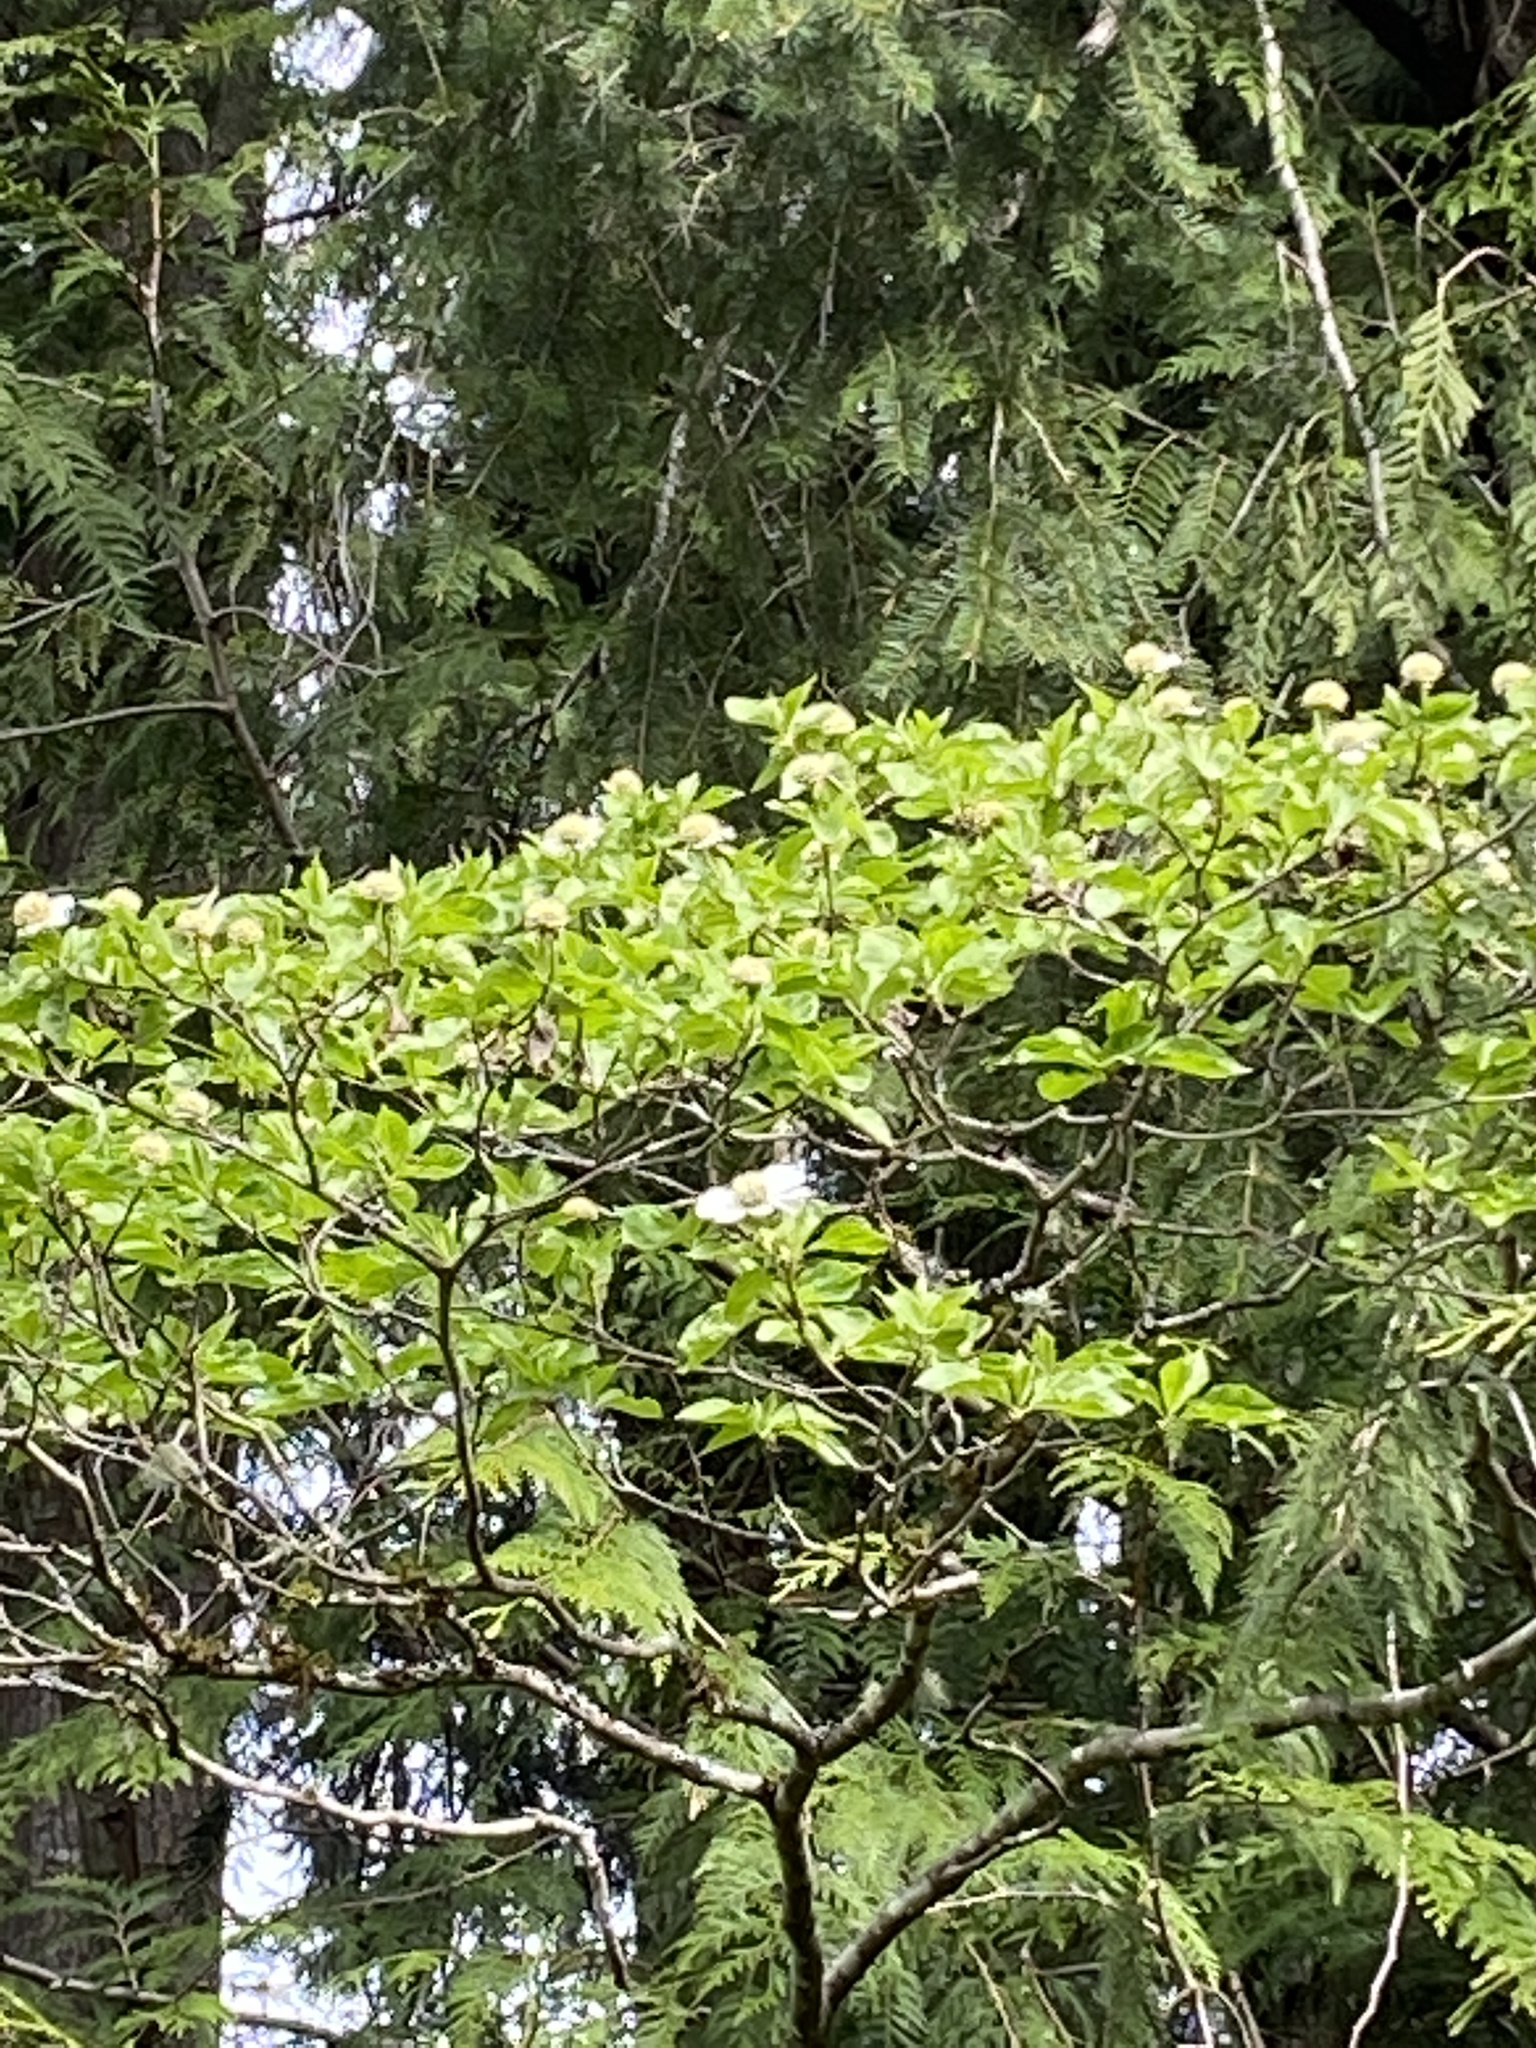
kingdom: Plantae
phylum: Tracheophyta
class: Magnoliopsida
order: Cornales
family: Cornaceae
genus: Cornus
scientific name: Cornus nuttallii
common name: Pacific dogwood
